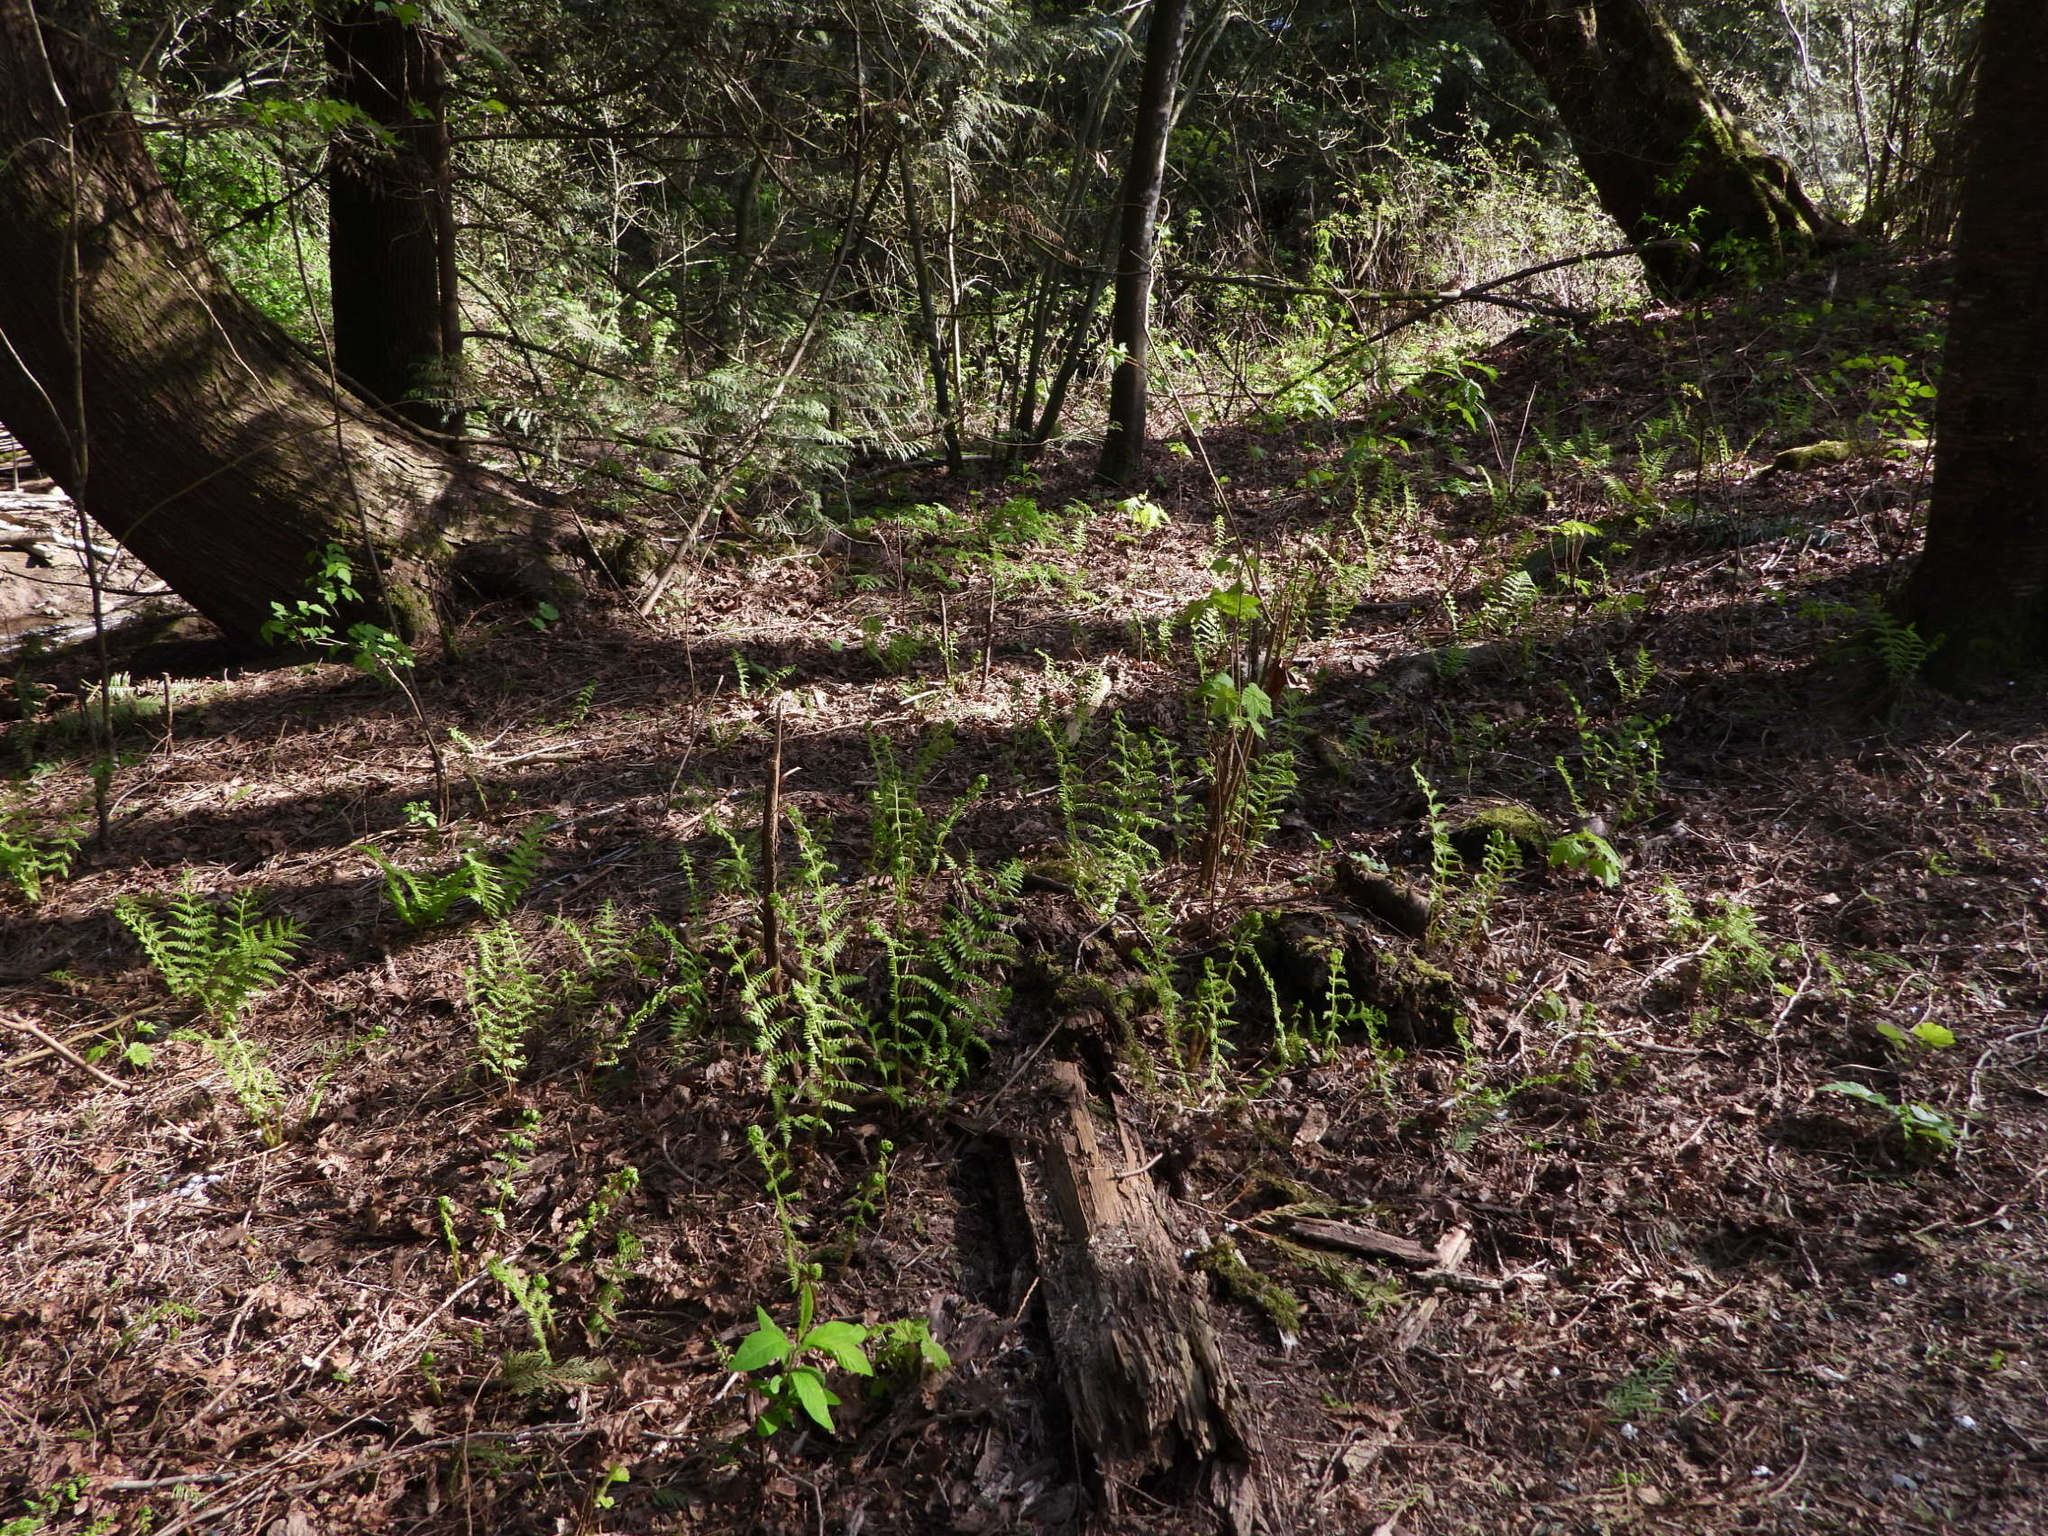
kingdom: Plantae
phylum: Tracheophyta
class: Polypodiopsida
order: Polypodiales
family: Athyriaceae
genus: Athyrium
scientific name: Athyrium filix-femina
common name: Lady fern
